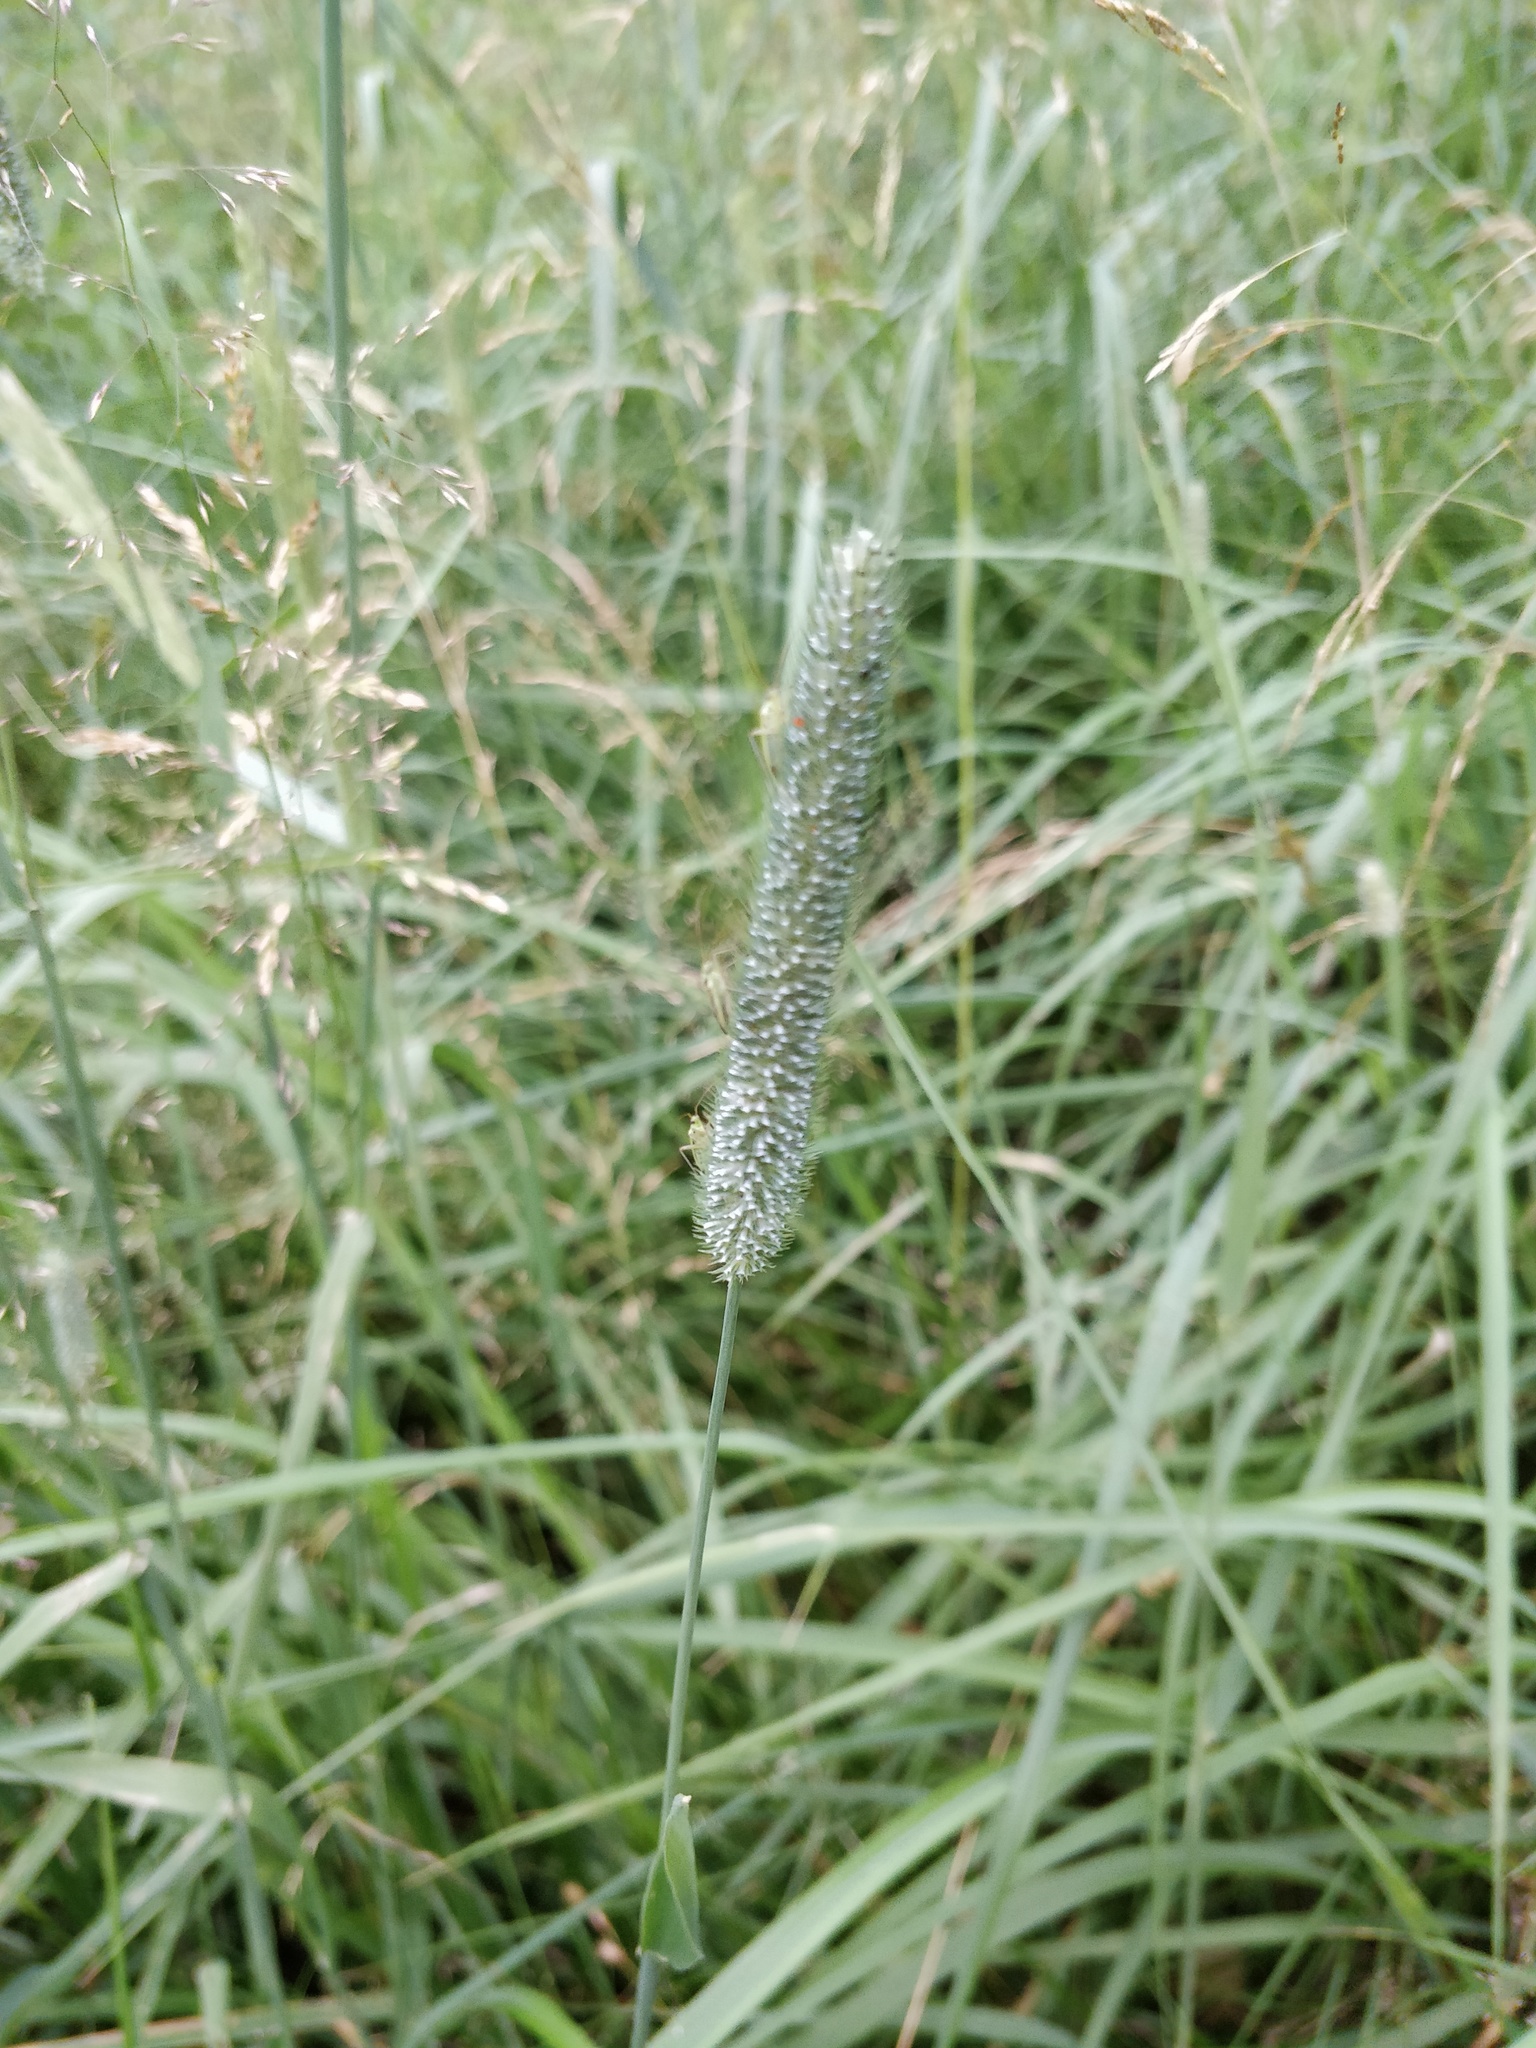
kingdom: Plantae
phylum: Tracheophyta
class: Liliopsida
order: Poales
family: Poaceae
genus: Phleum
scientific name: Phleum pratense
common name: Timothy grass
